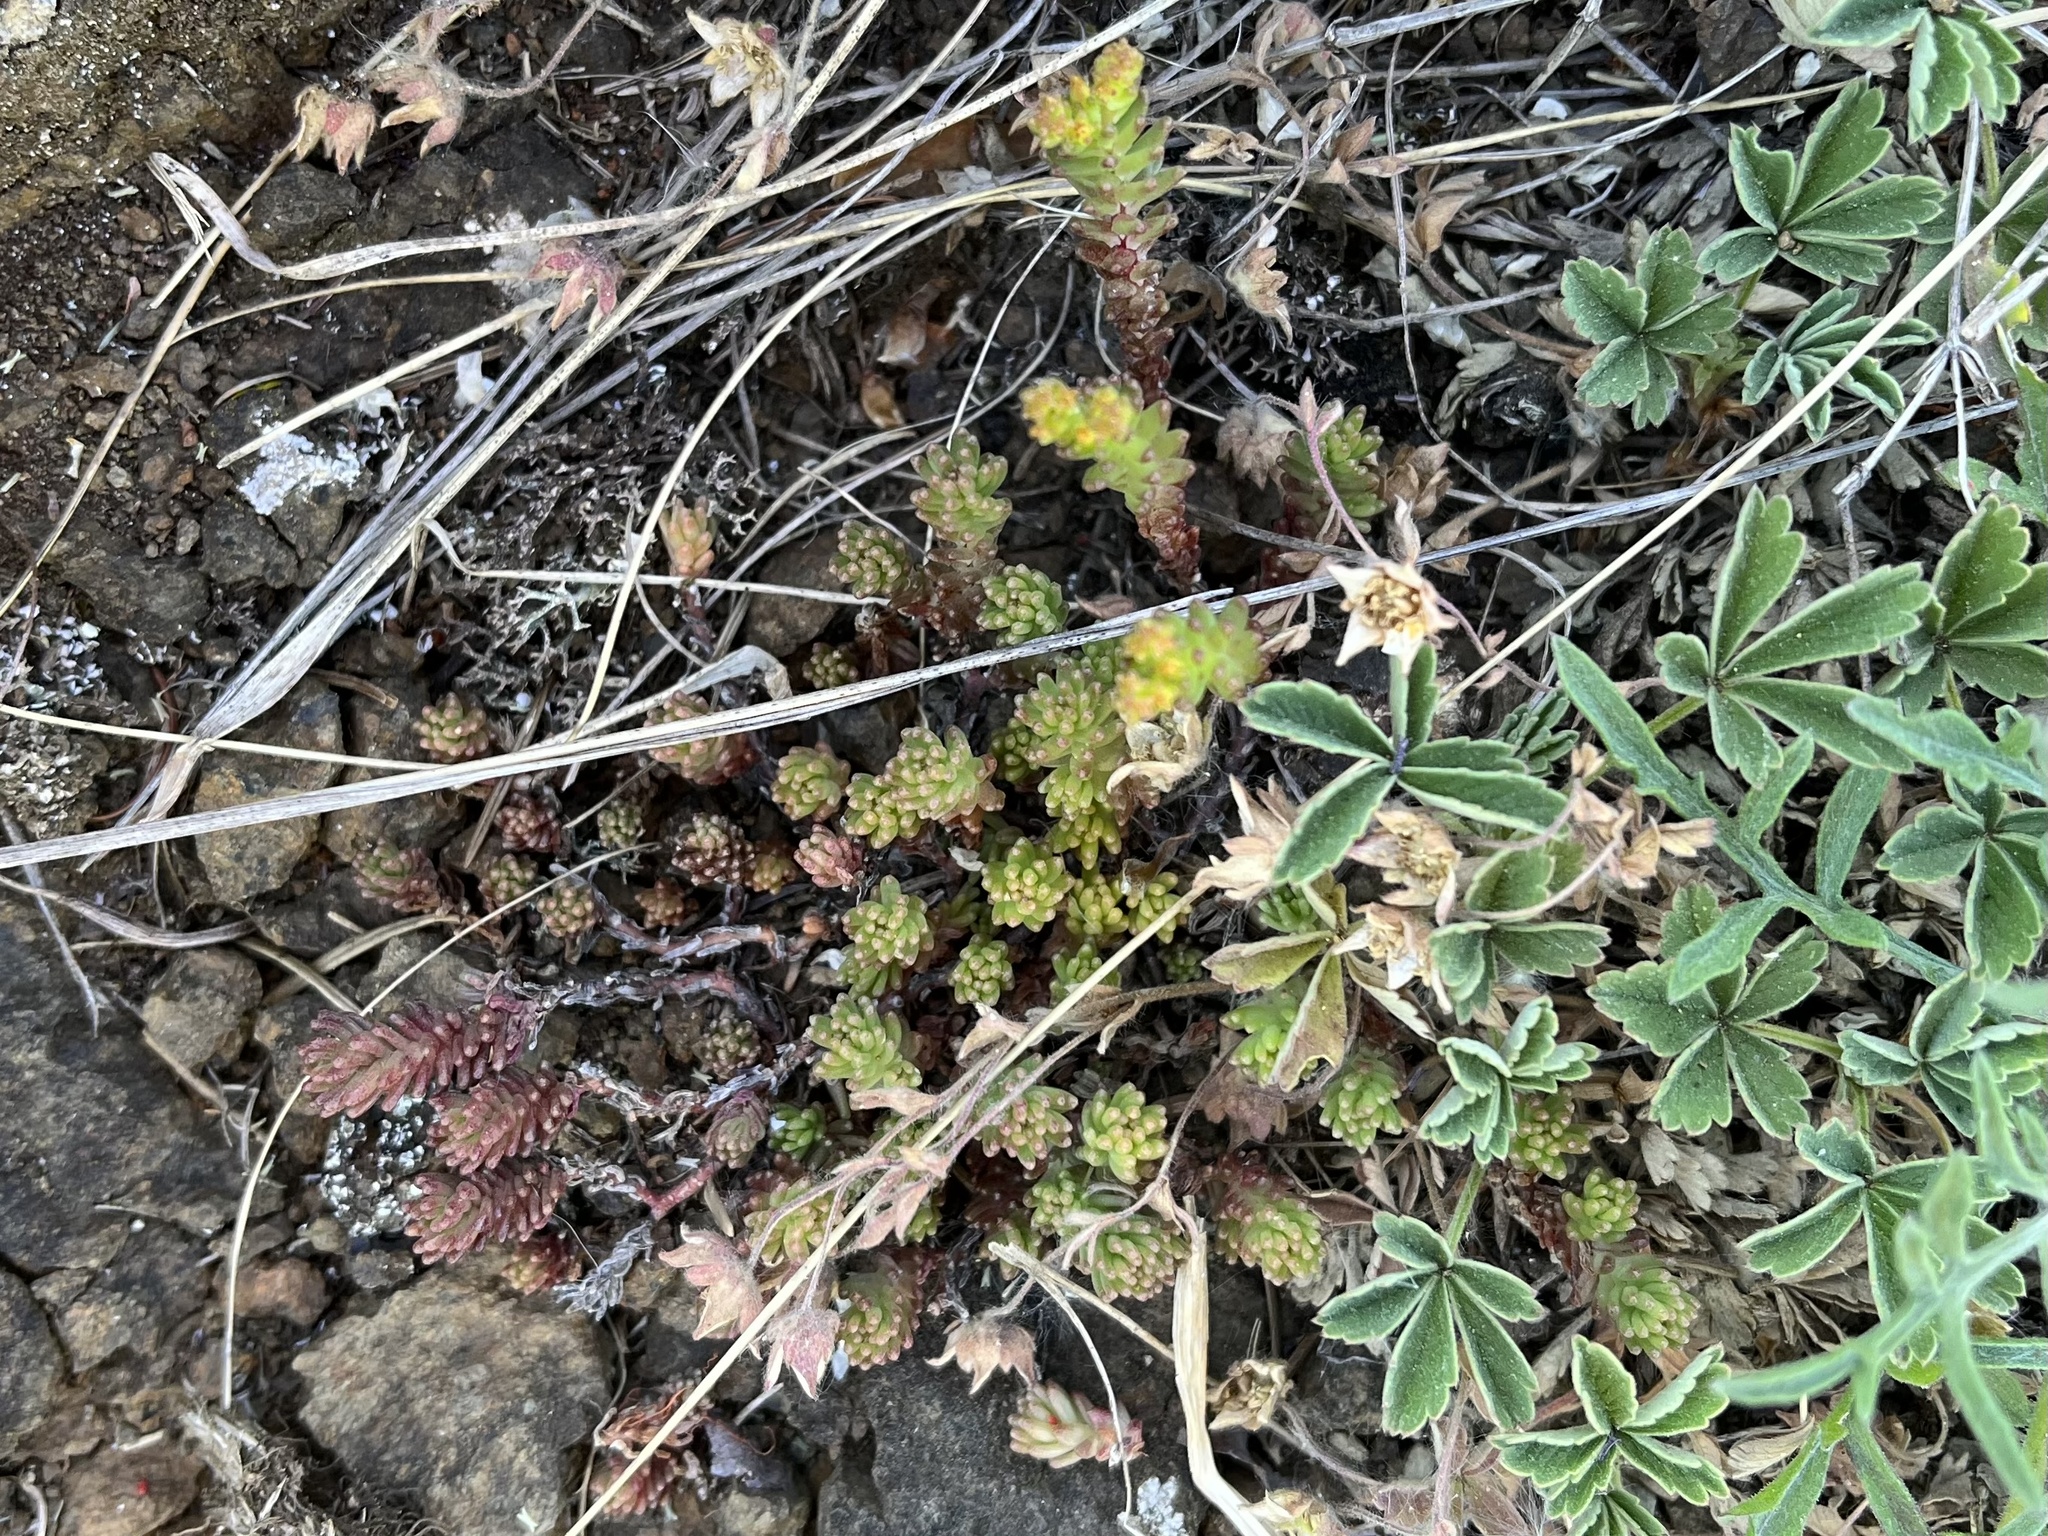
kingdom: Plantae
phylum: Tracheophyta
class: Magnoliopsida
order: Saxifragales
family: Crassulaceae
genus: Sedum
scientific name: Sedum sexangulare
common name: Tasteless stonecrop
